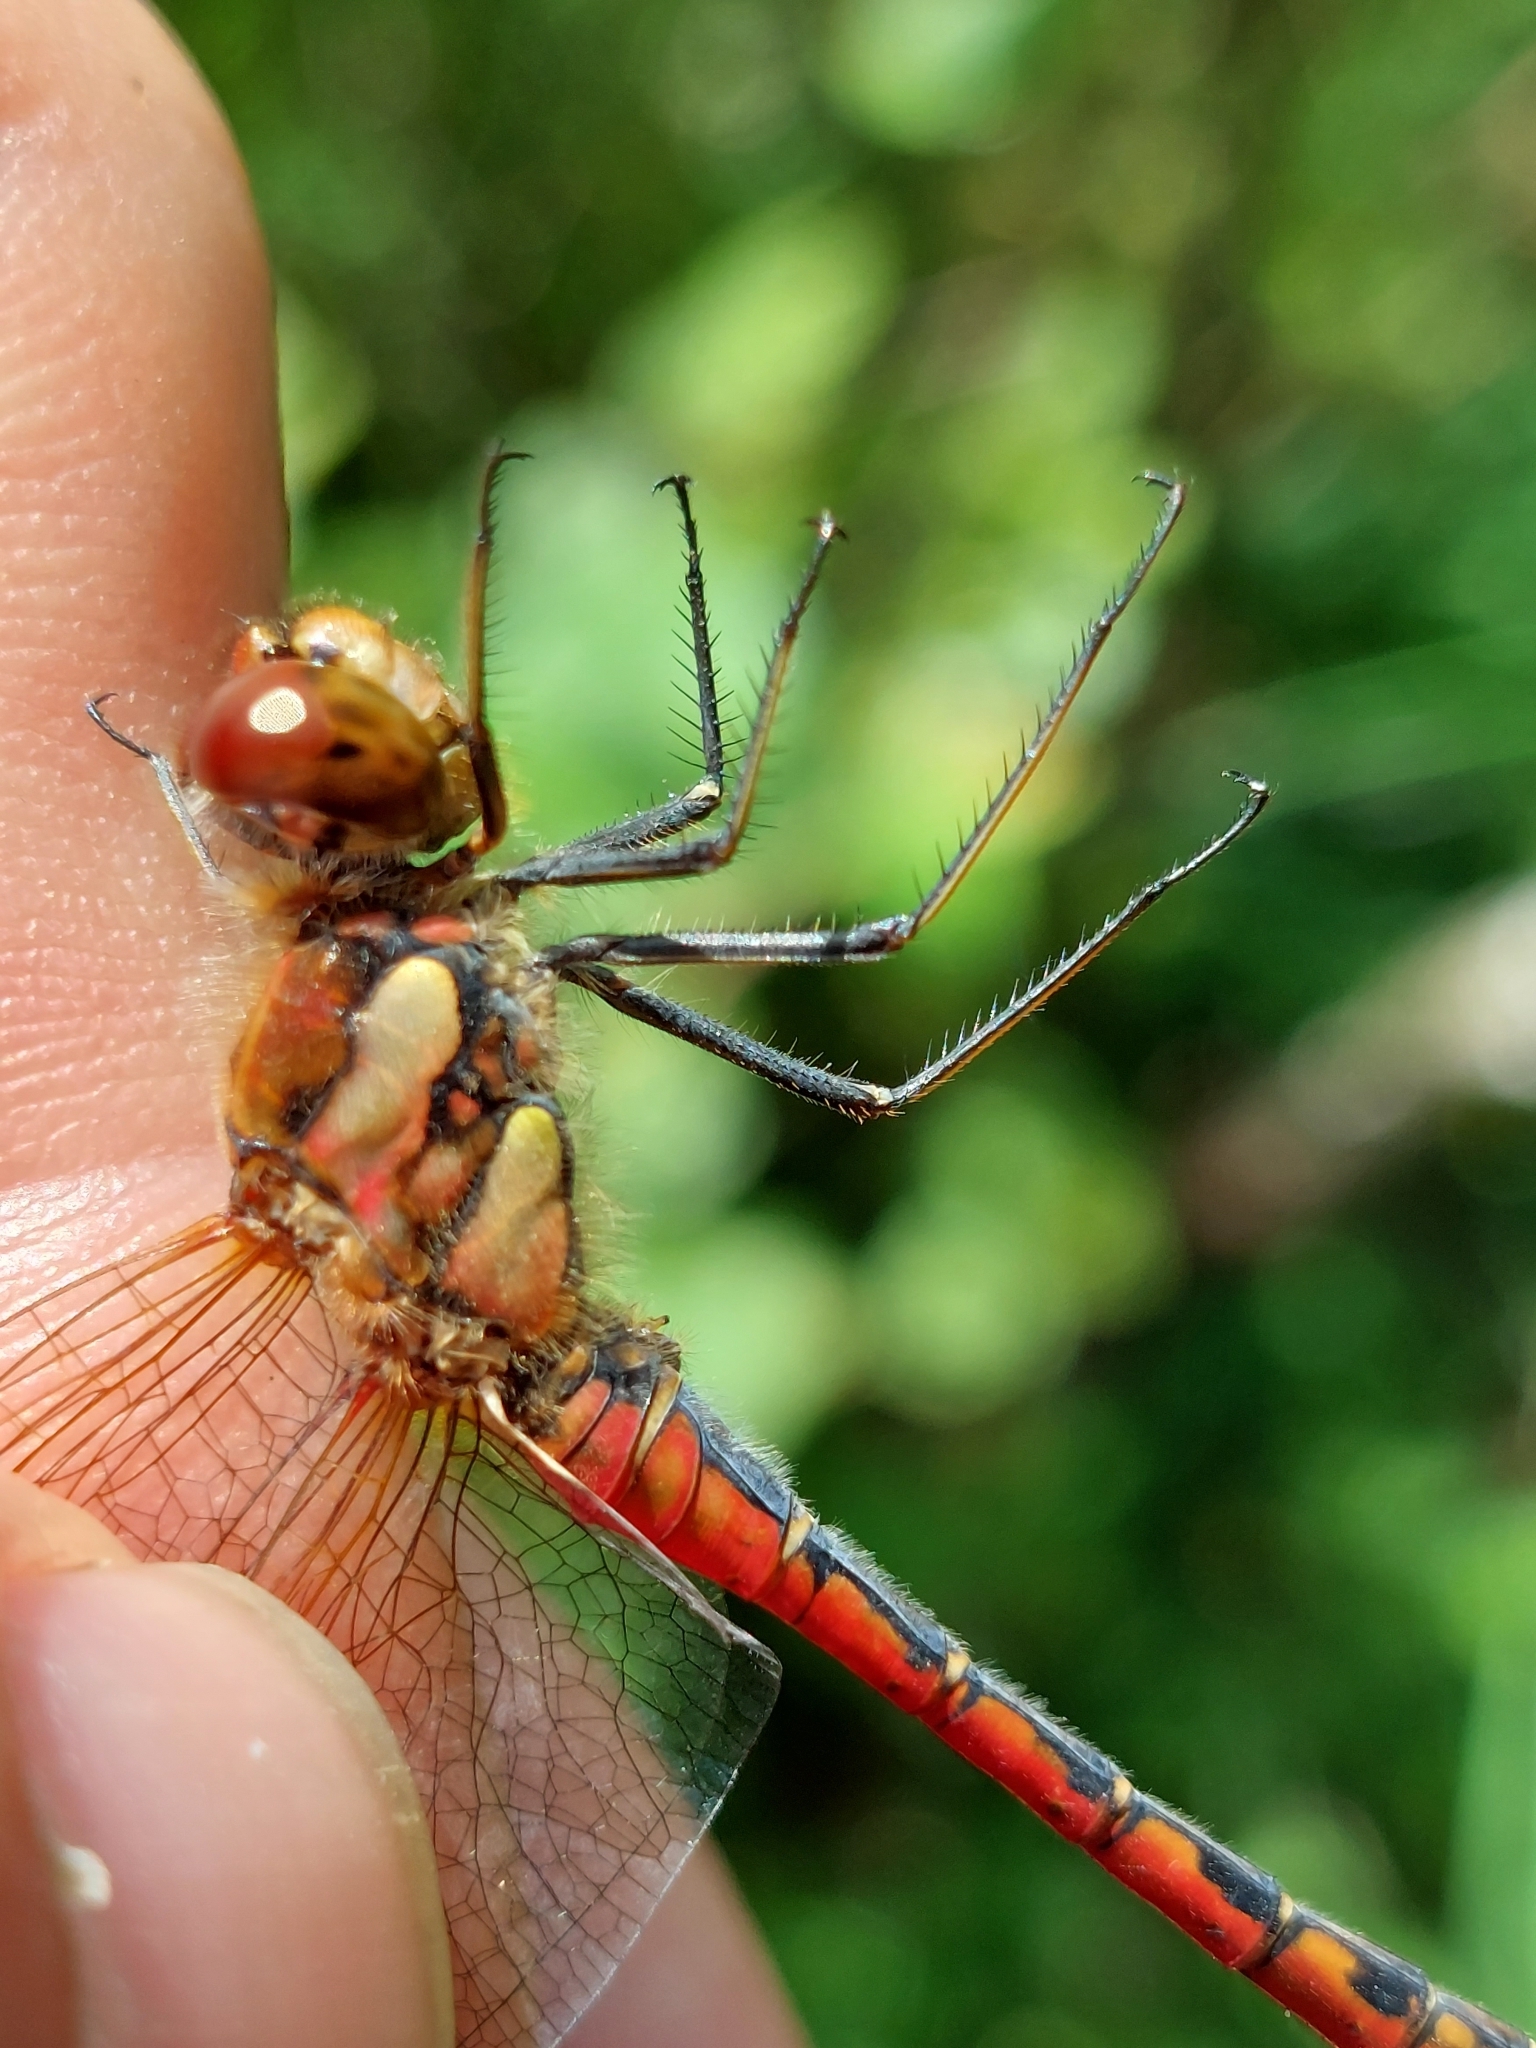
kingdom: Animalia
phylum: Arthropoda
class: Insecta
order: Odonata
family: Libellulidae
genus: Sympetrum
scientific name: Sympetrum striolatum
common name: Common darter
